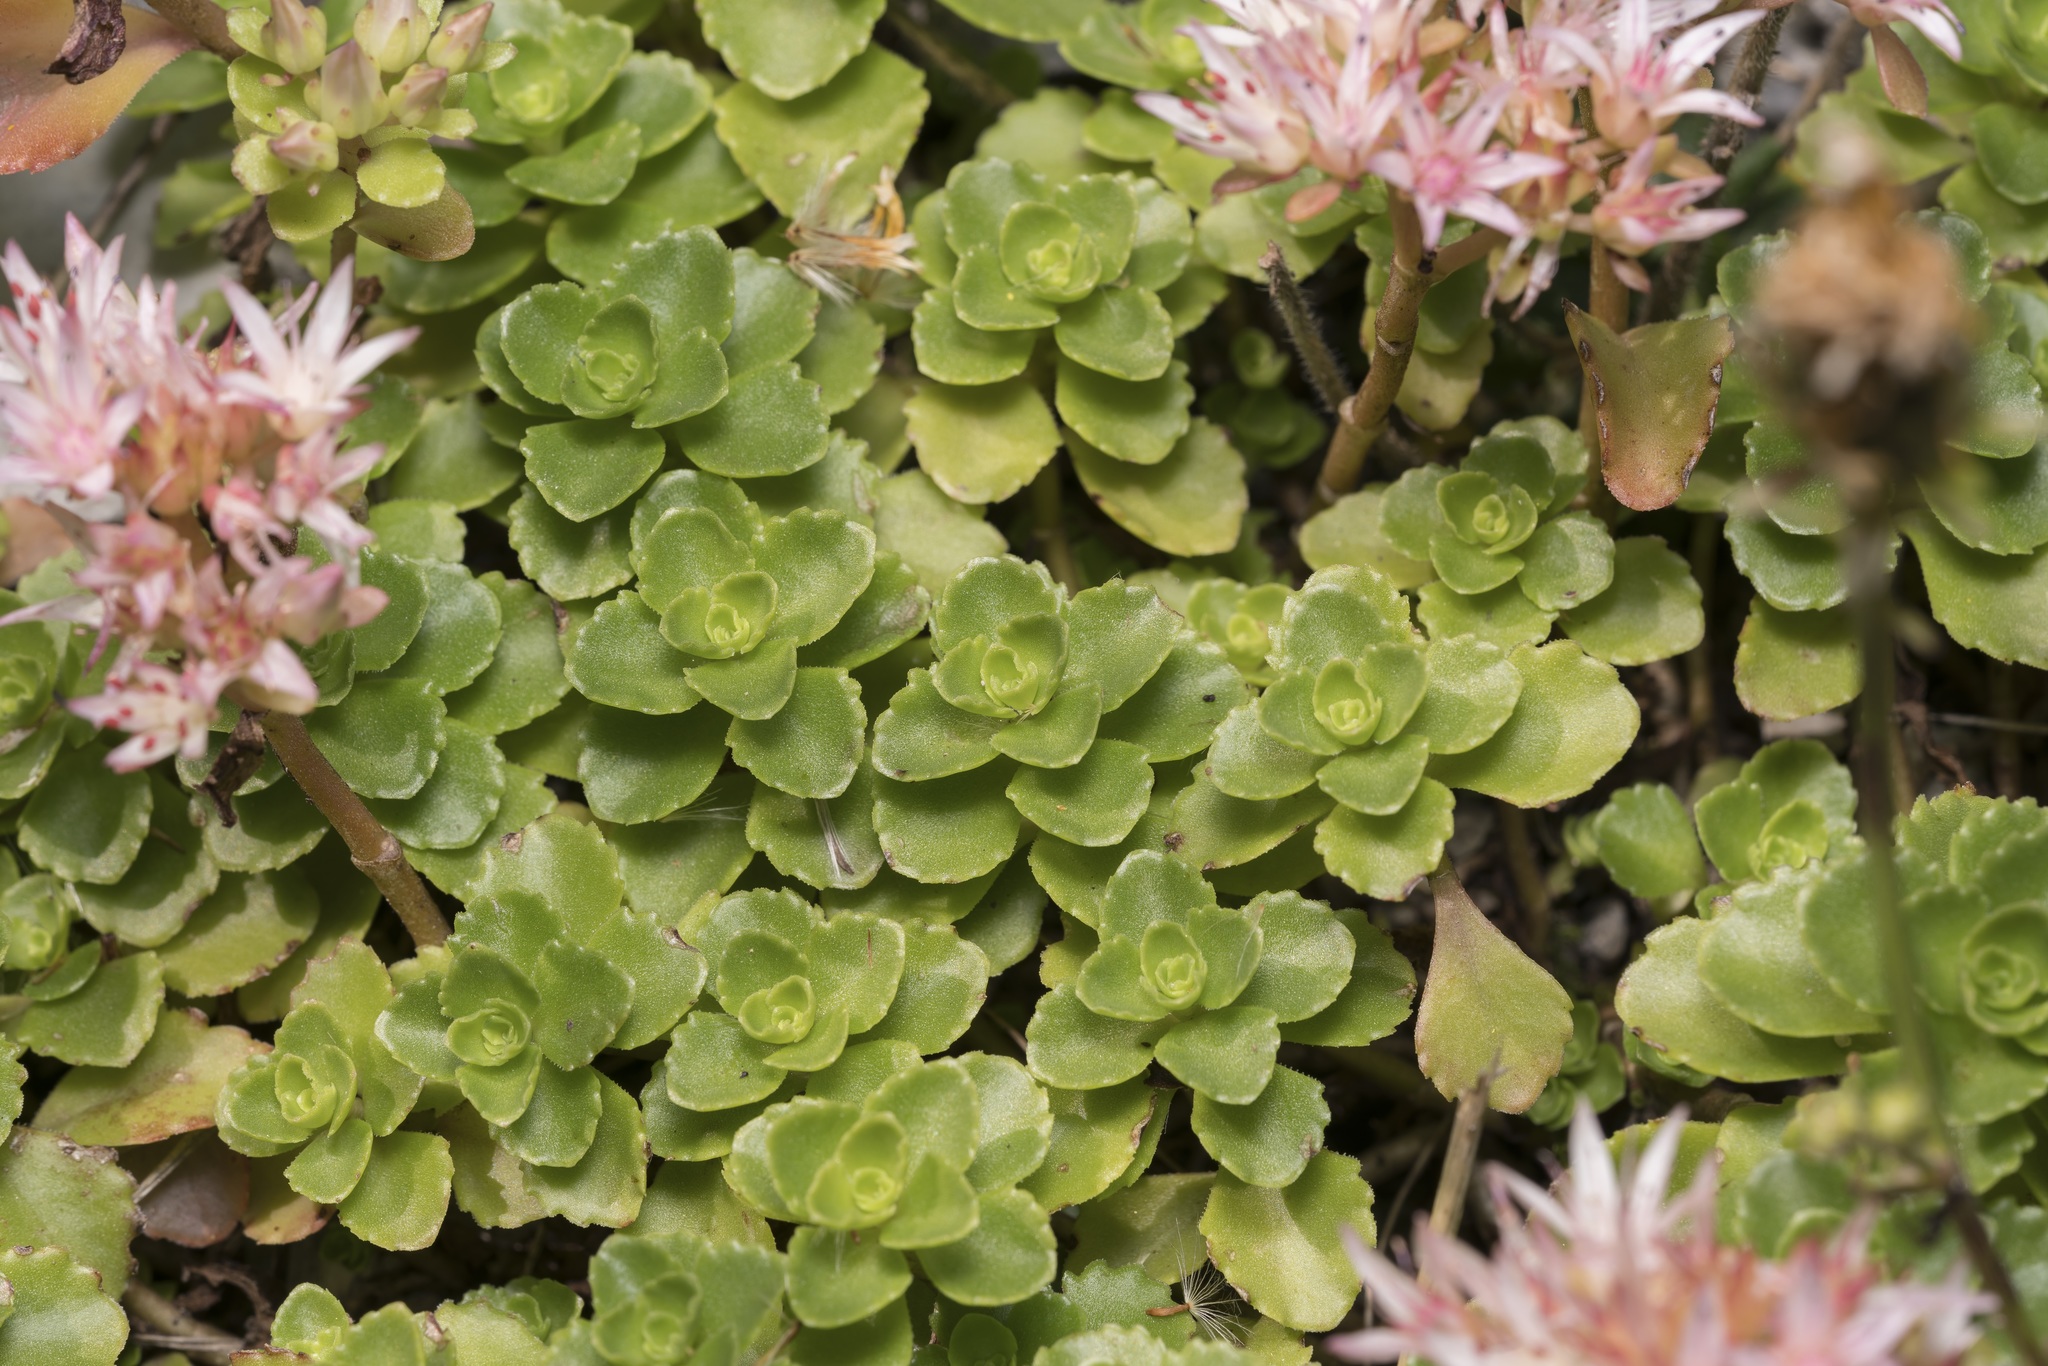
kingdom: Plantae
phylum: Tracheophyta
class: Magnoliopsida
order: Saxifragales
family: Crassulaceae
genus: Phedimus
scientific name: Phedimus spurius
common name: Caucasian stonecrop
